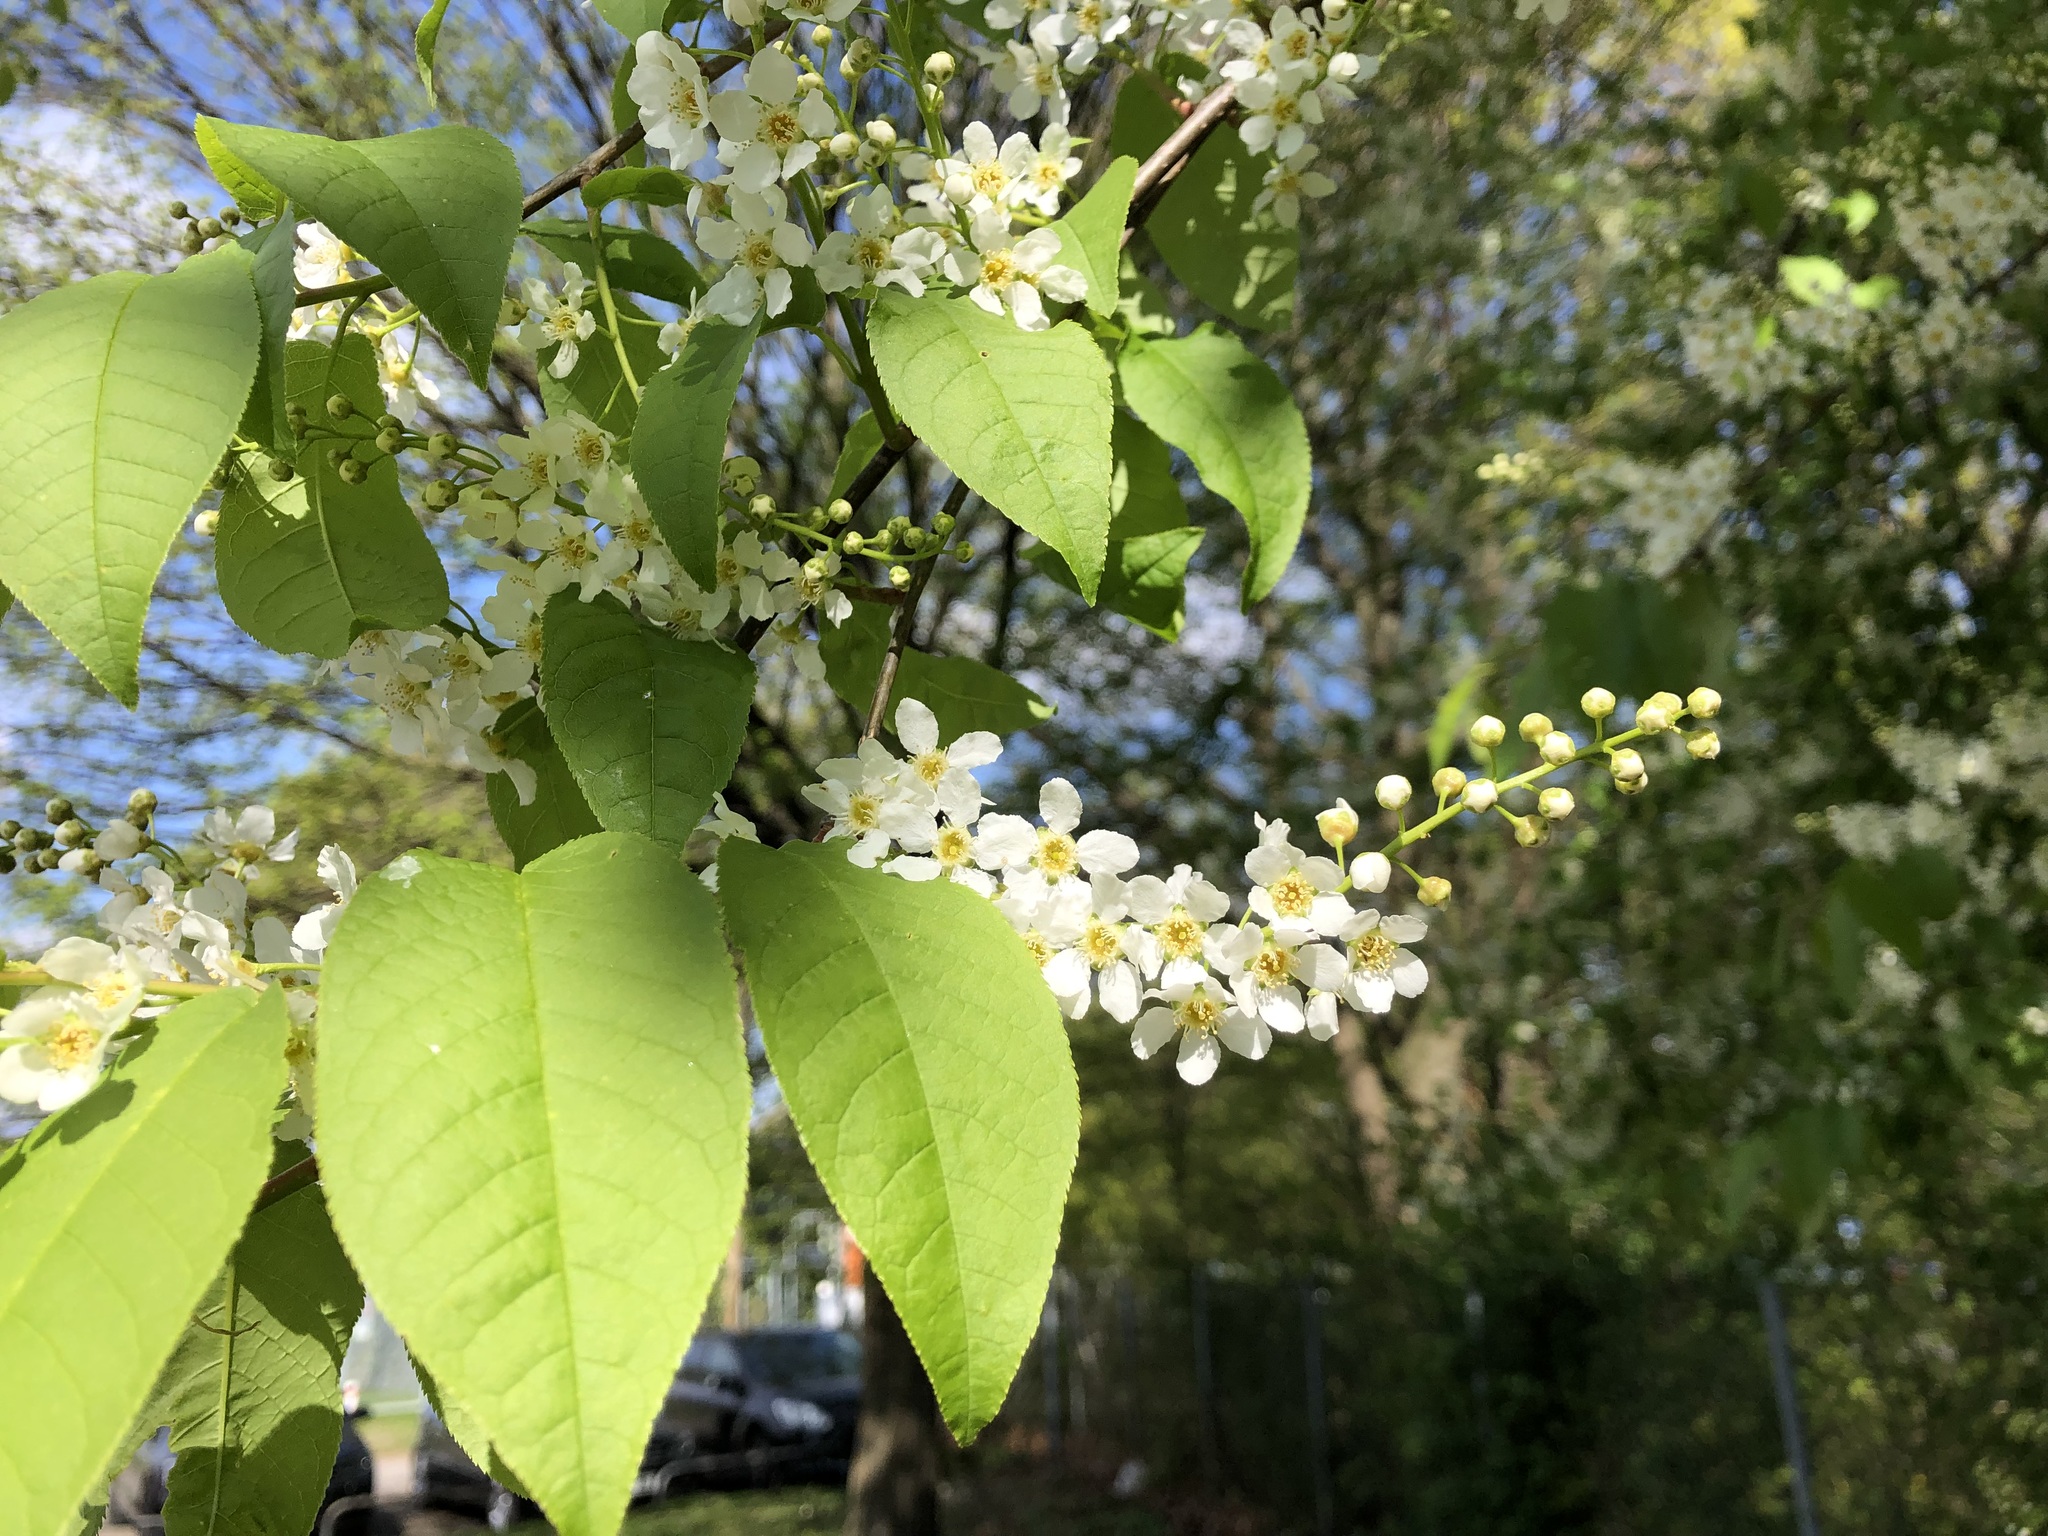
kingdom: Plantae
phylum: Tracheophyta
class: Magnoliopsida
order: Rosales
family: Rosaceae
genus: Prunus
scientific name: Prunus padus
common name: Bird cherry
